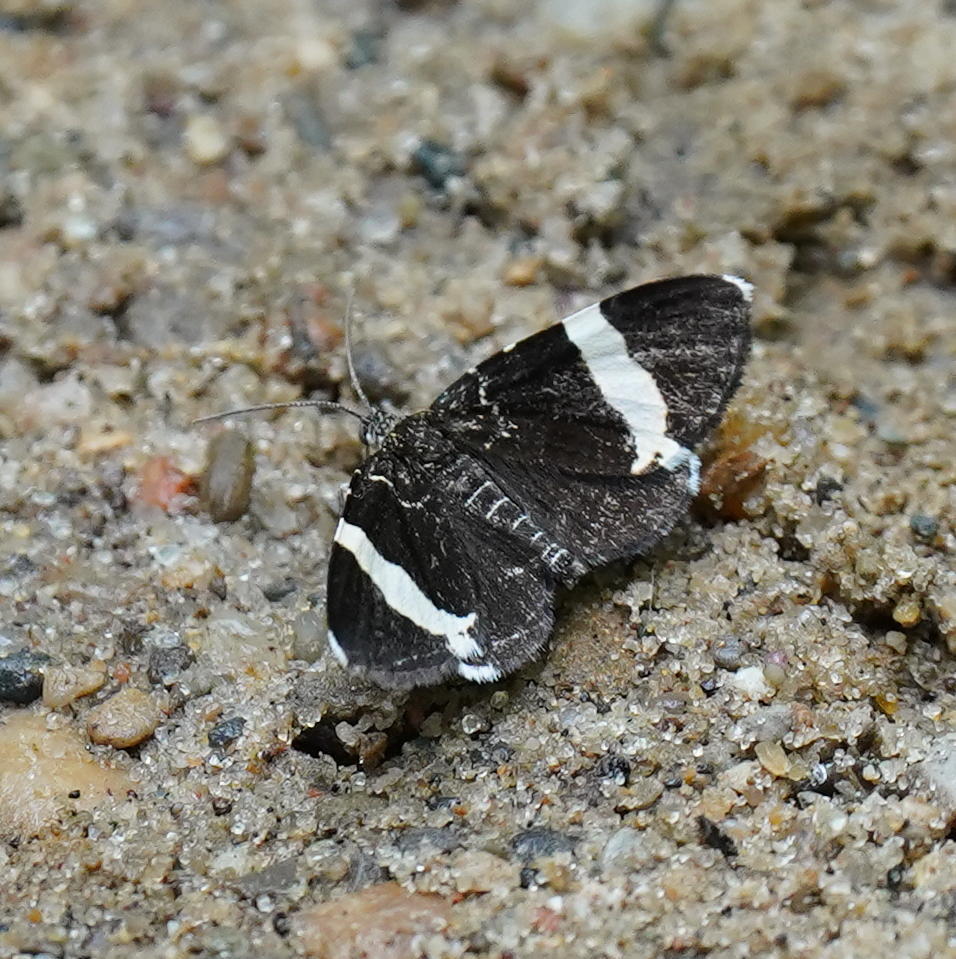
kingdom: Animalia
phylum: Arthropoda
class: Insecta
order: Lepidoptera
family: Geometridae
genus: Trichodezia
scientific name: Trichodezia albovittata
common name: White striped black
